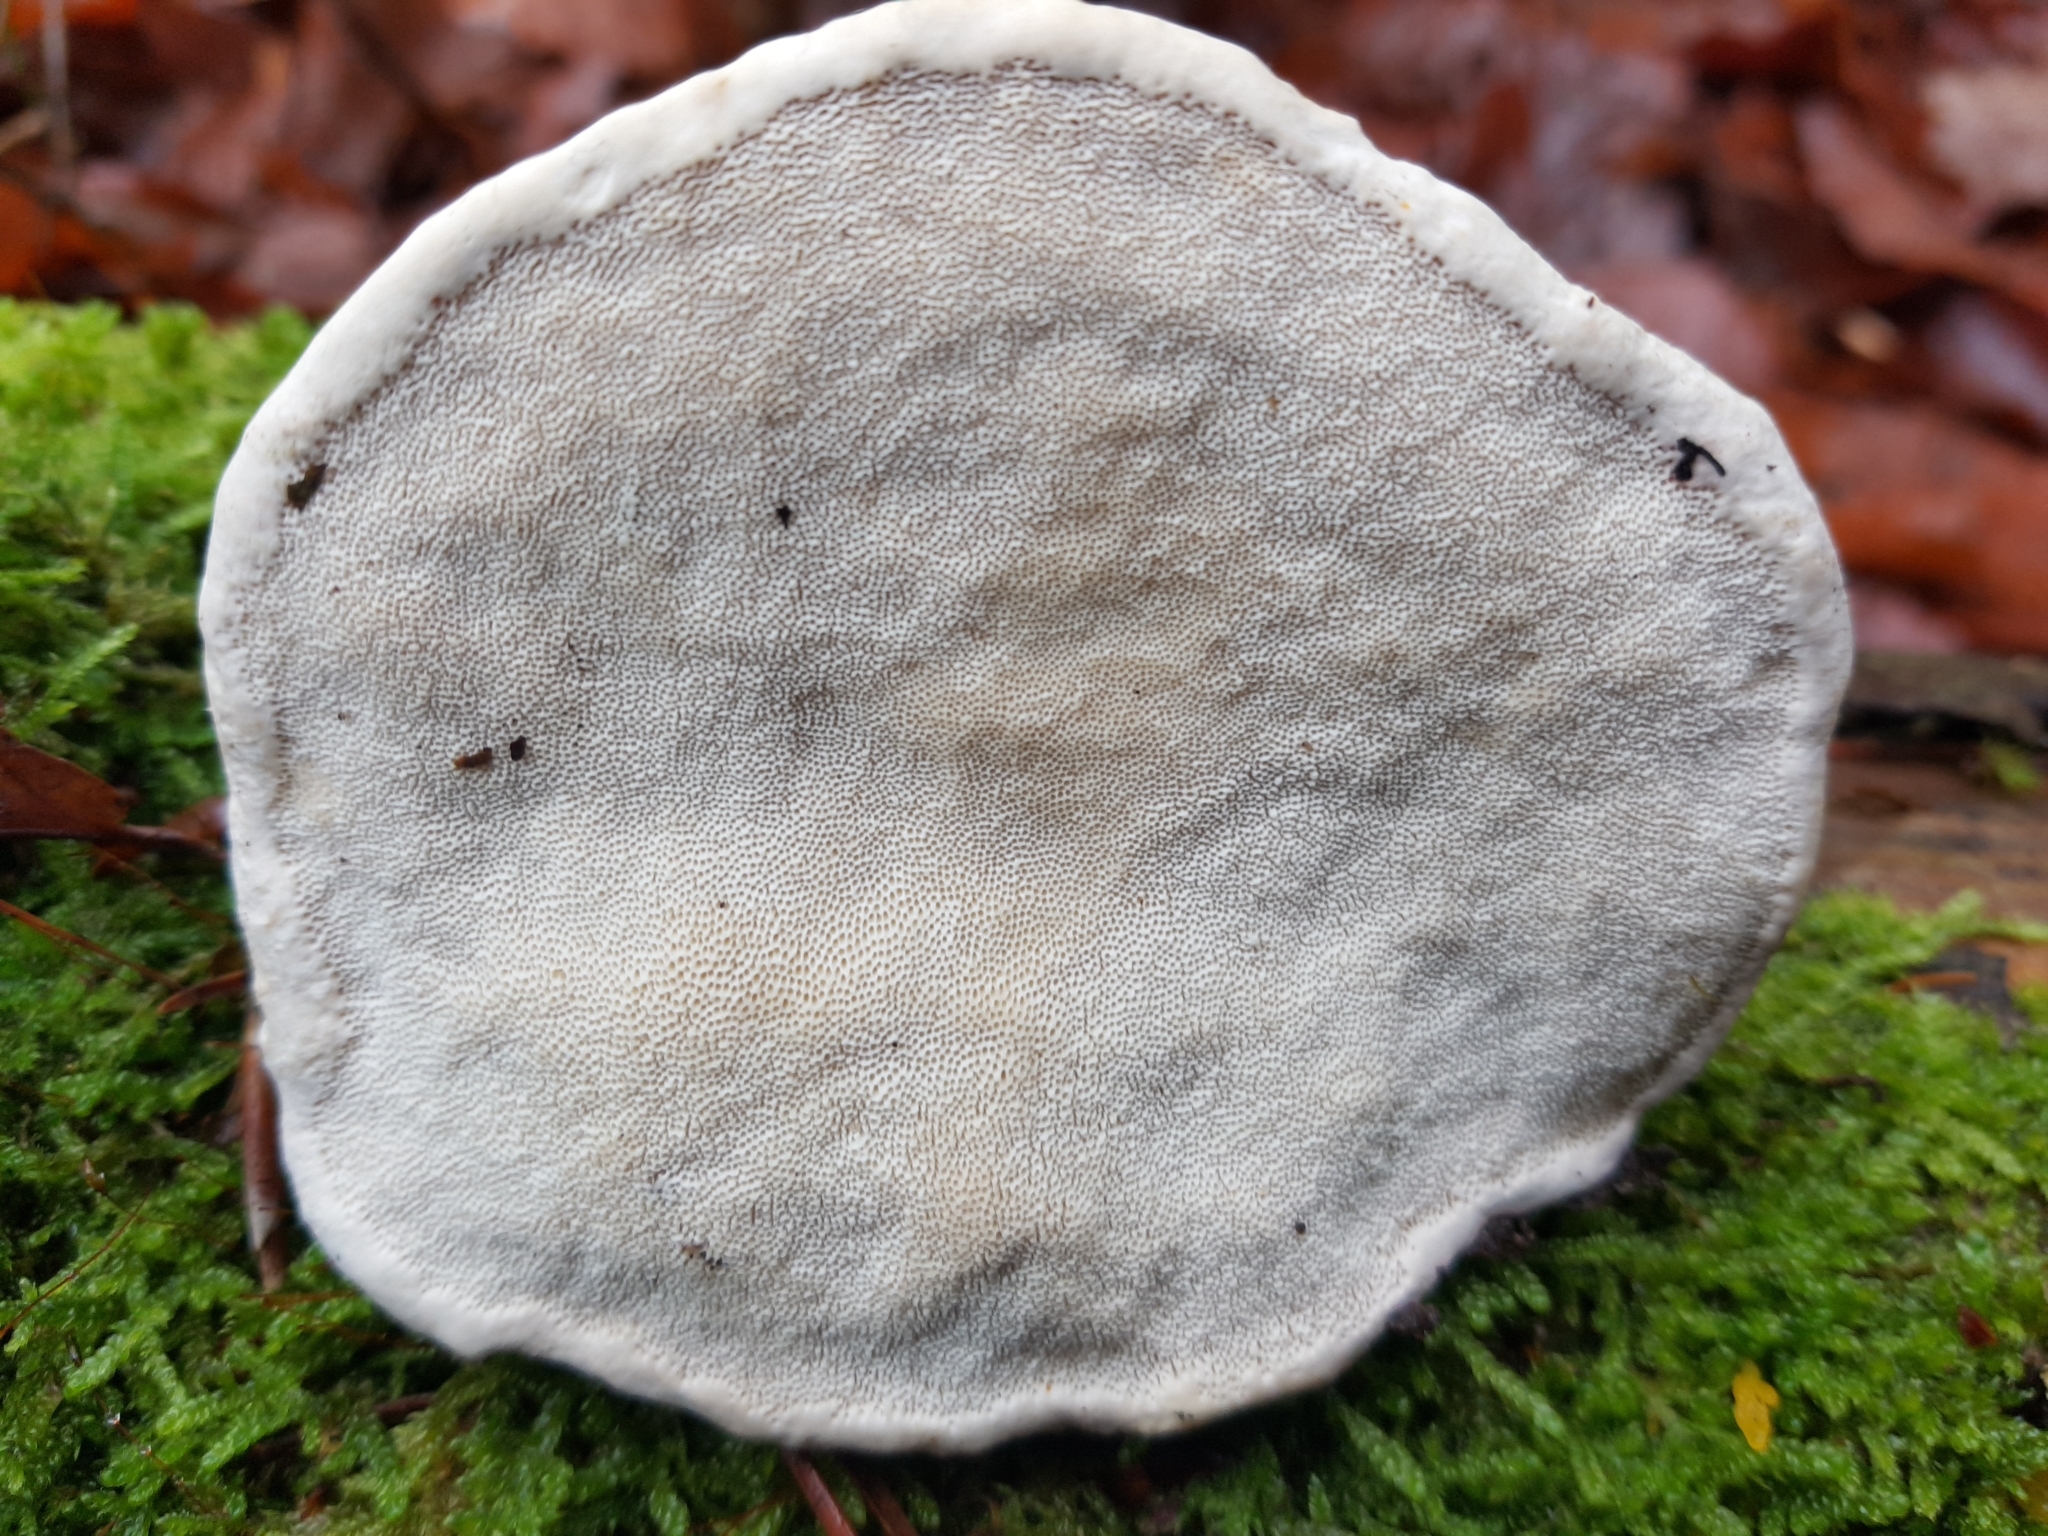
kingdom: Fungi
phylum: Basidiomycota
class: Agaricomycetes
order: Polyporales
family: Fomitopsidaceae
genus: Fomitopsis
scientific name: Fomitopsis pinicola
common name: Red-belted bracket
